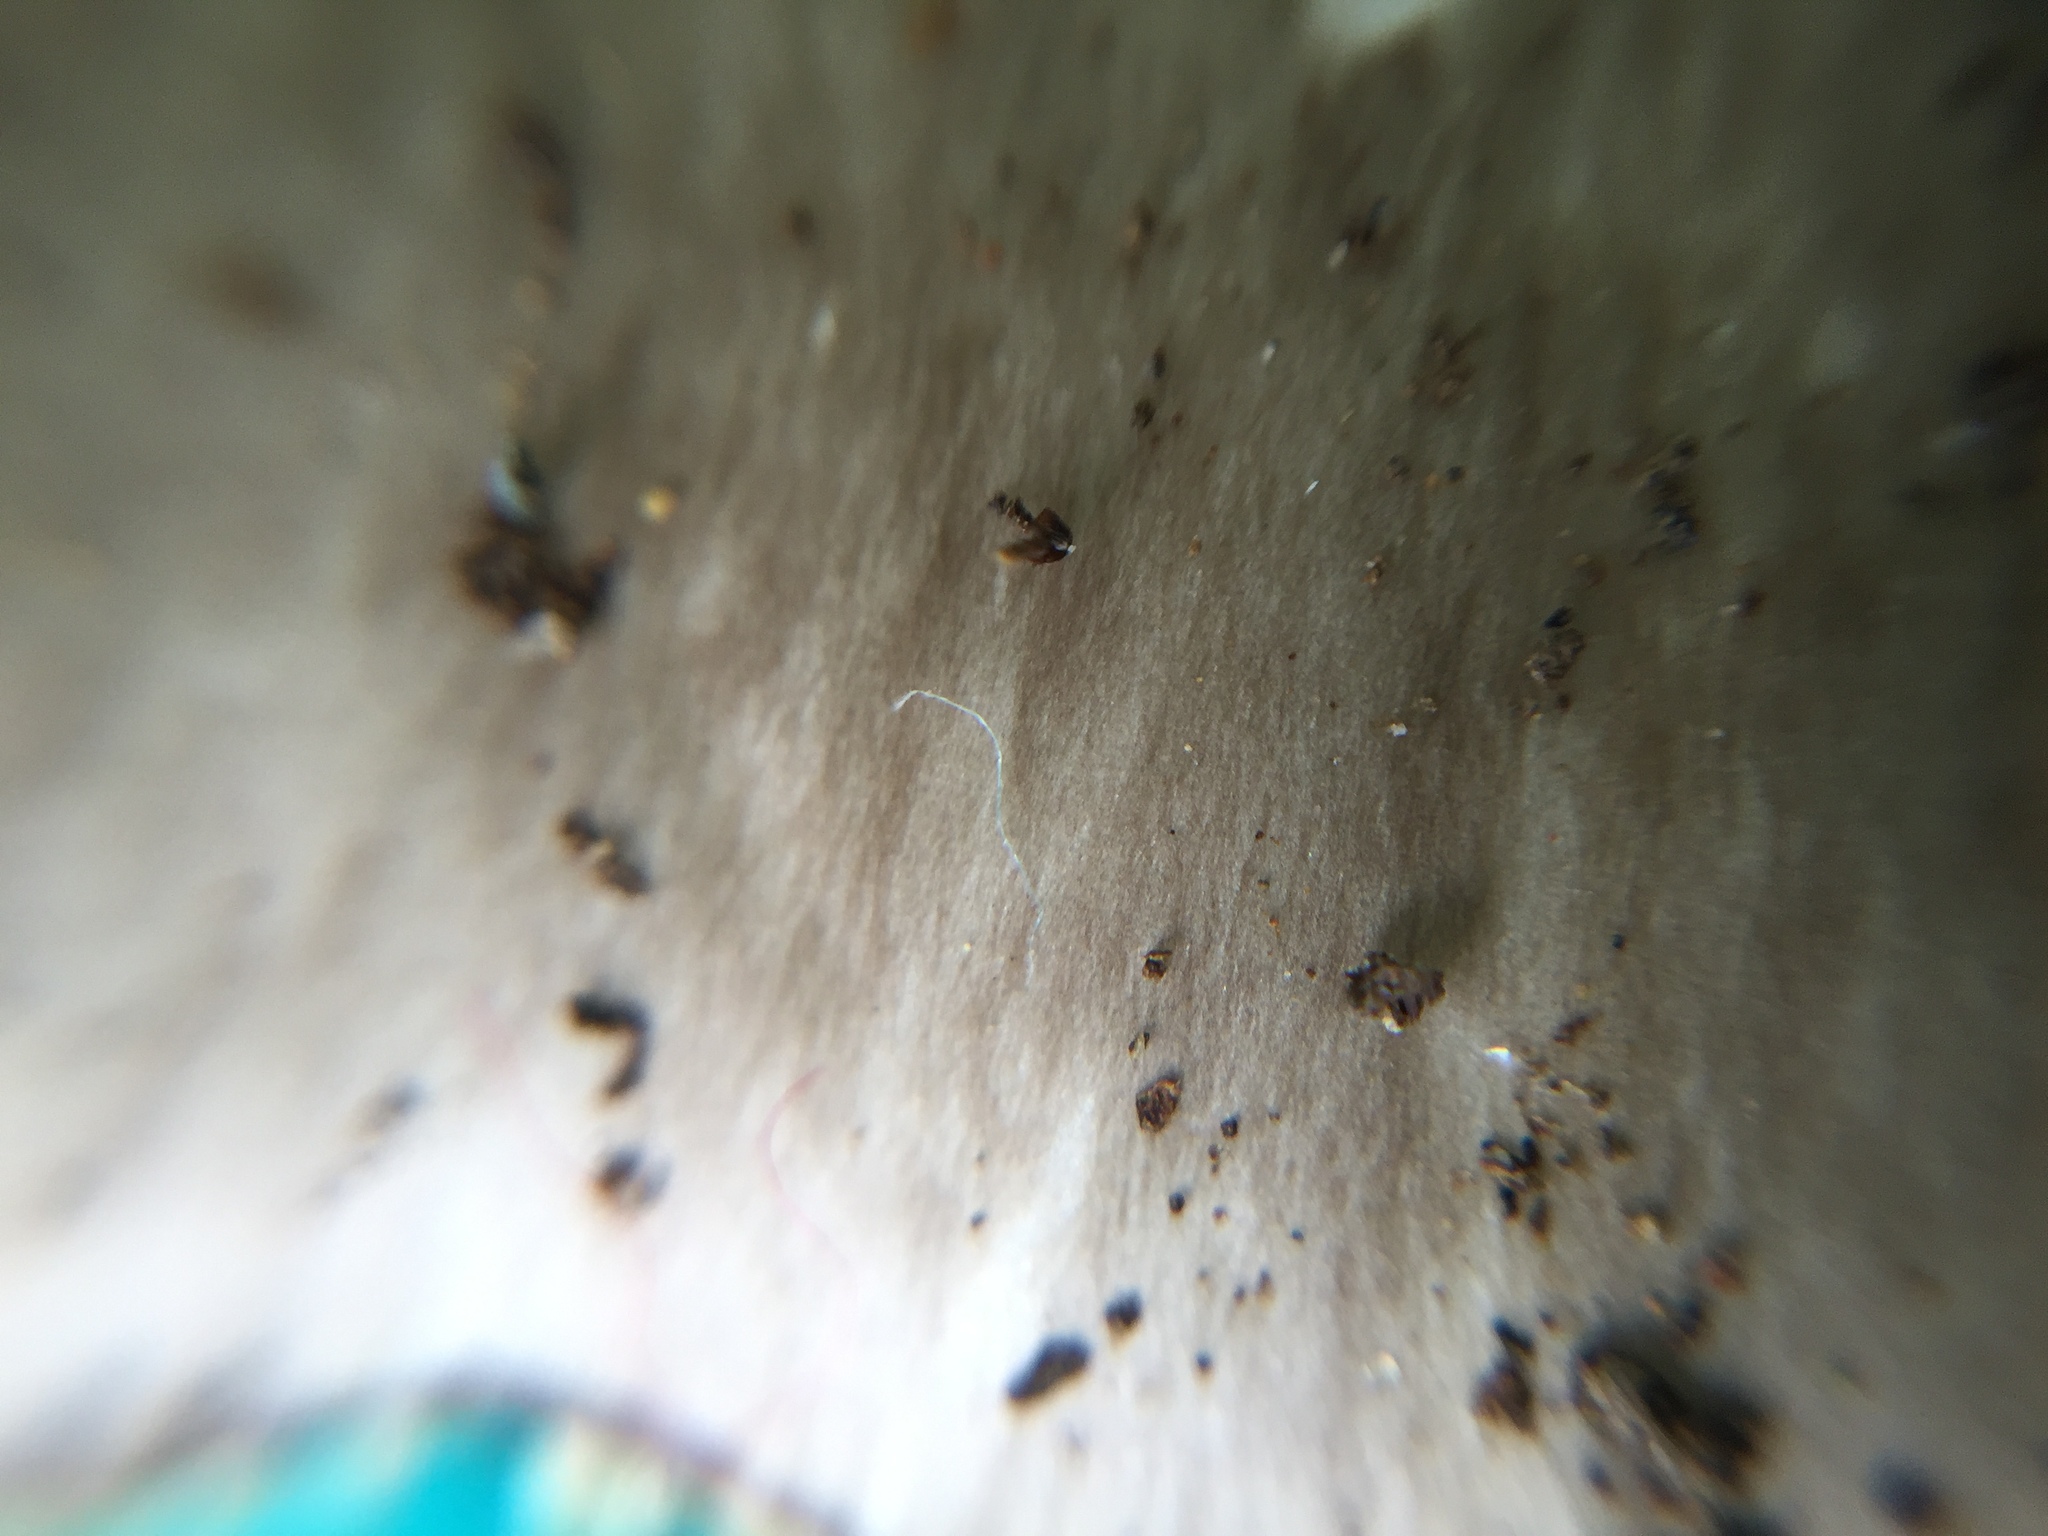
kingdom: Fungi
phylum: Basidiomycota
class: Agaricomycetes
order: Agaricales
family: Amanitaceae
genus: Amanita
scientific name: Amanita pseudoporphyria
